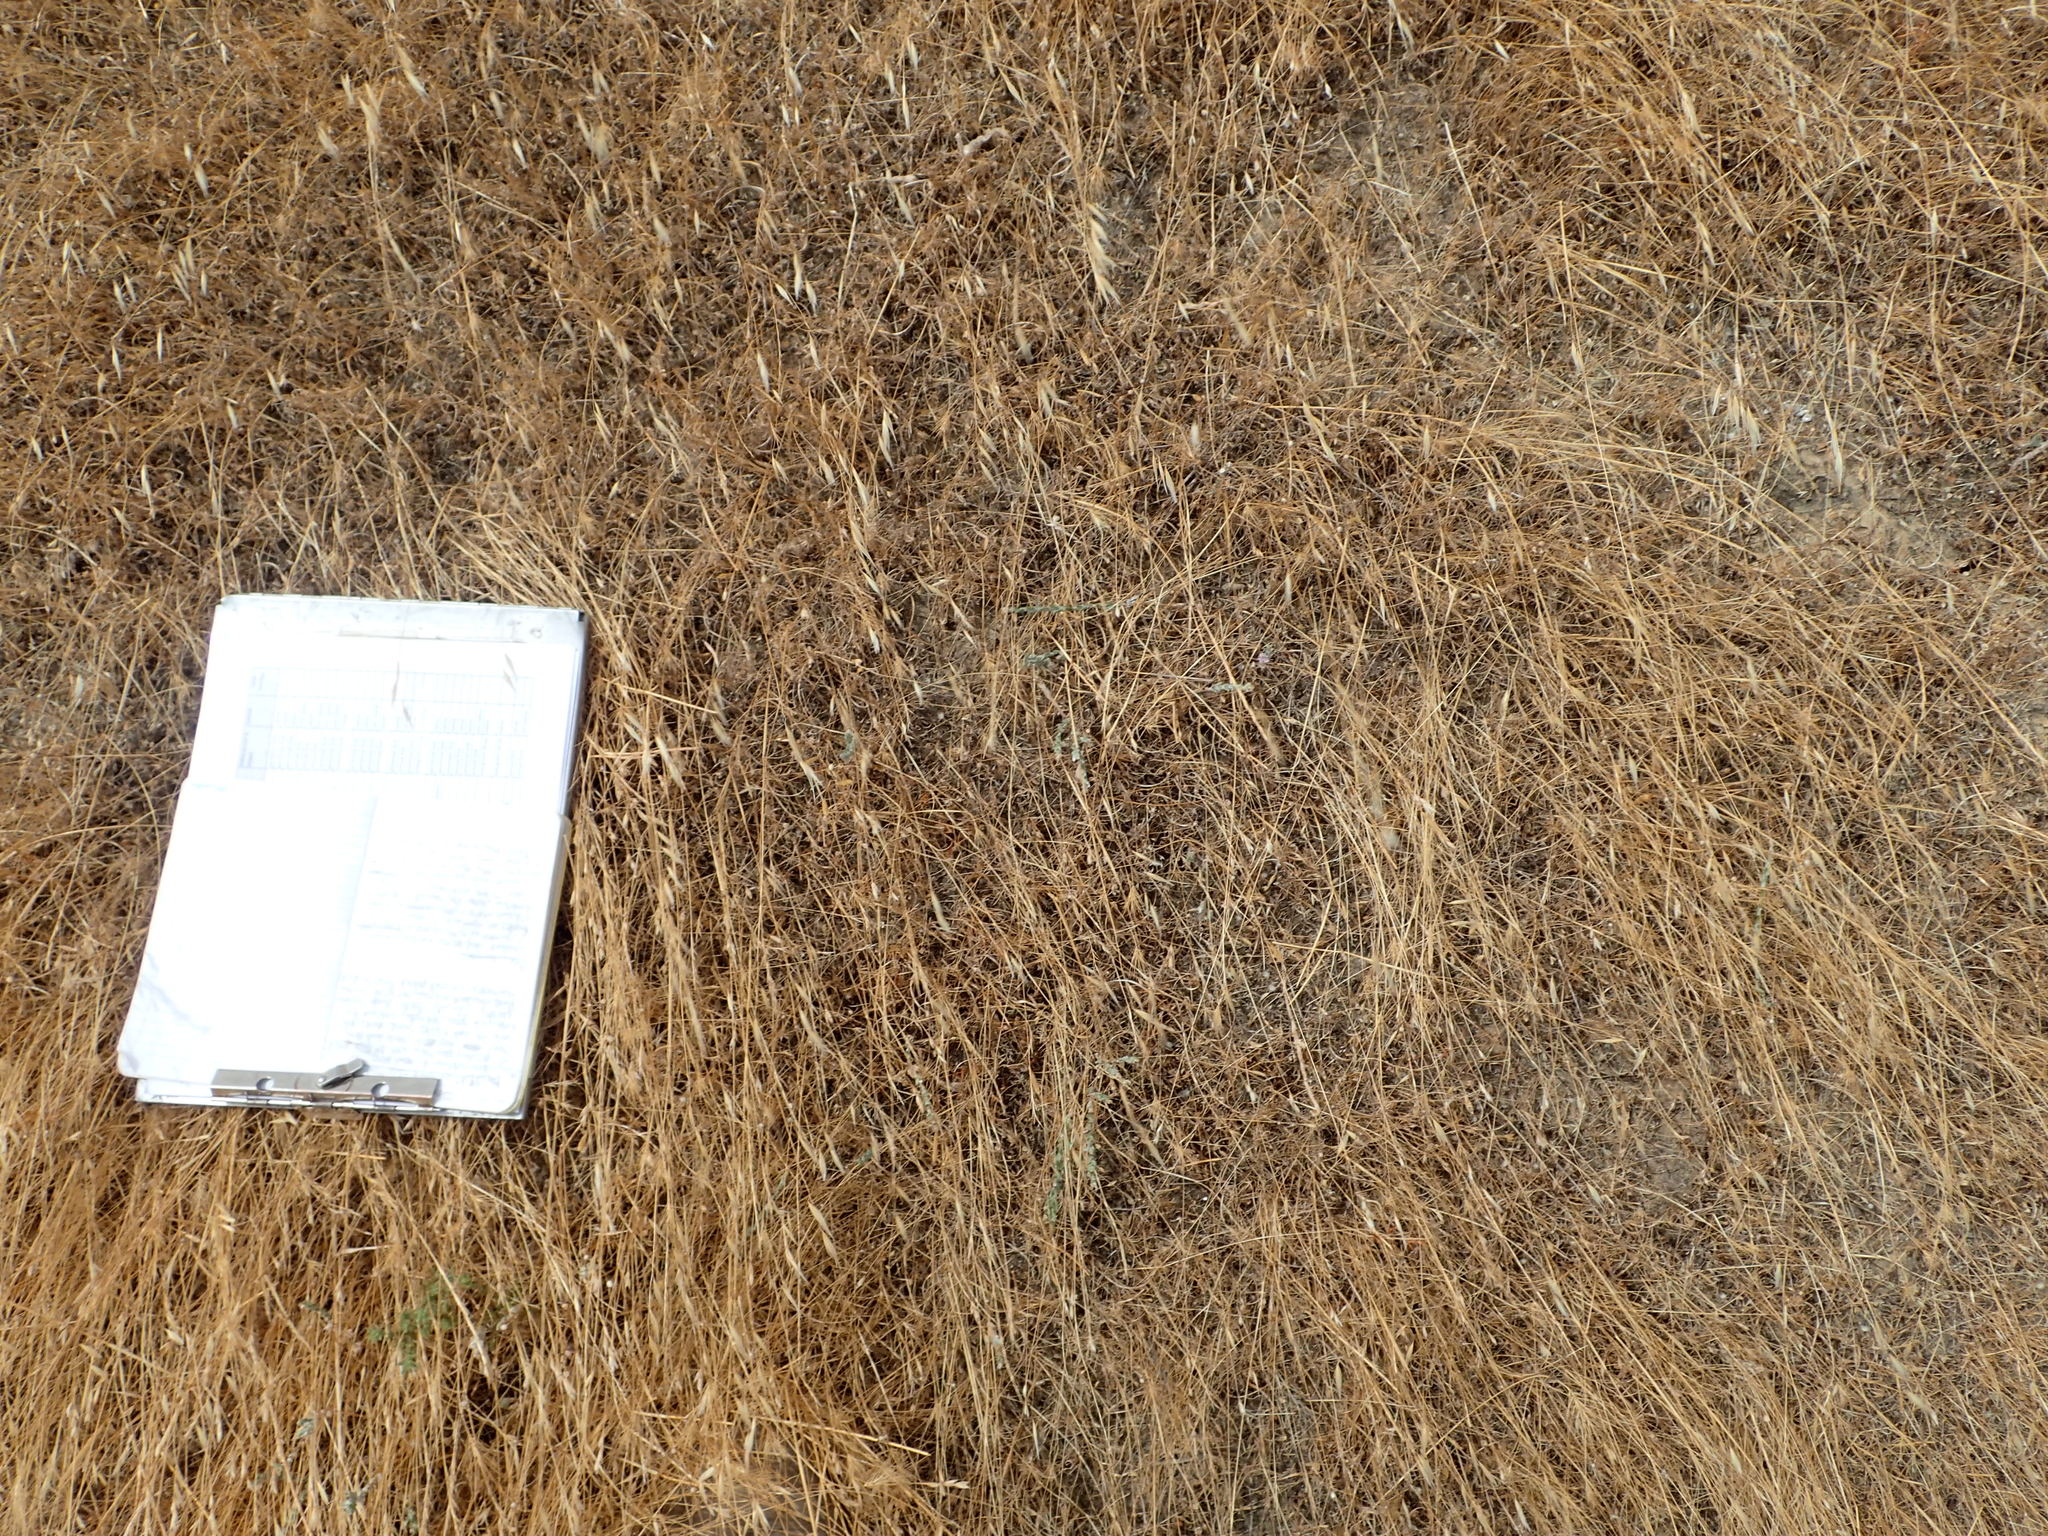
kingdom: Plantae
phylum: Tracheophyta
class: Magnoliopsida
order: Asterales
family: Asteraceae
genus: Lessingia
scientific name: Lessingia virgata
